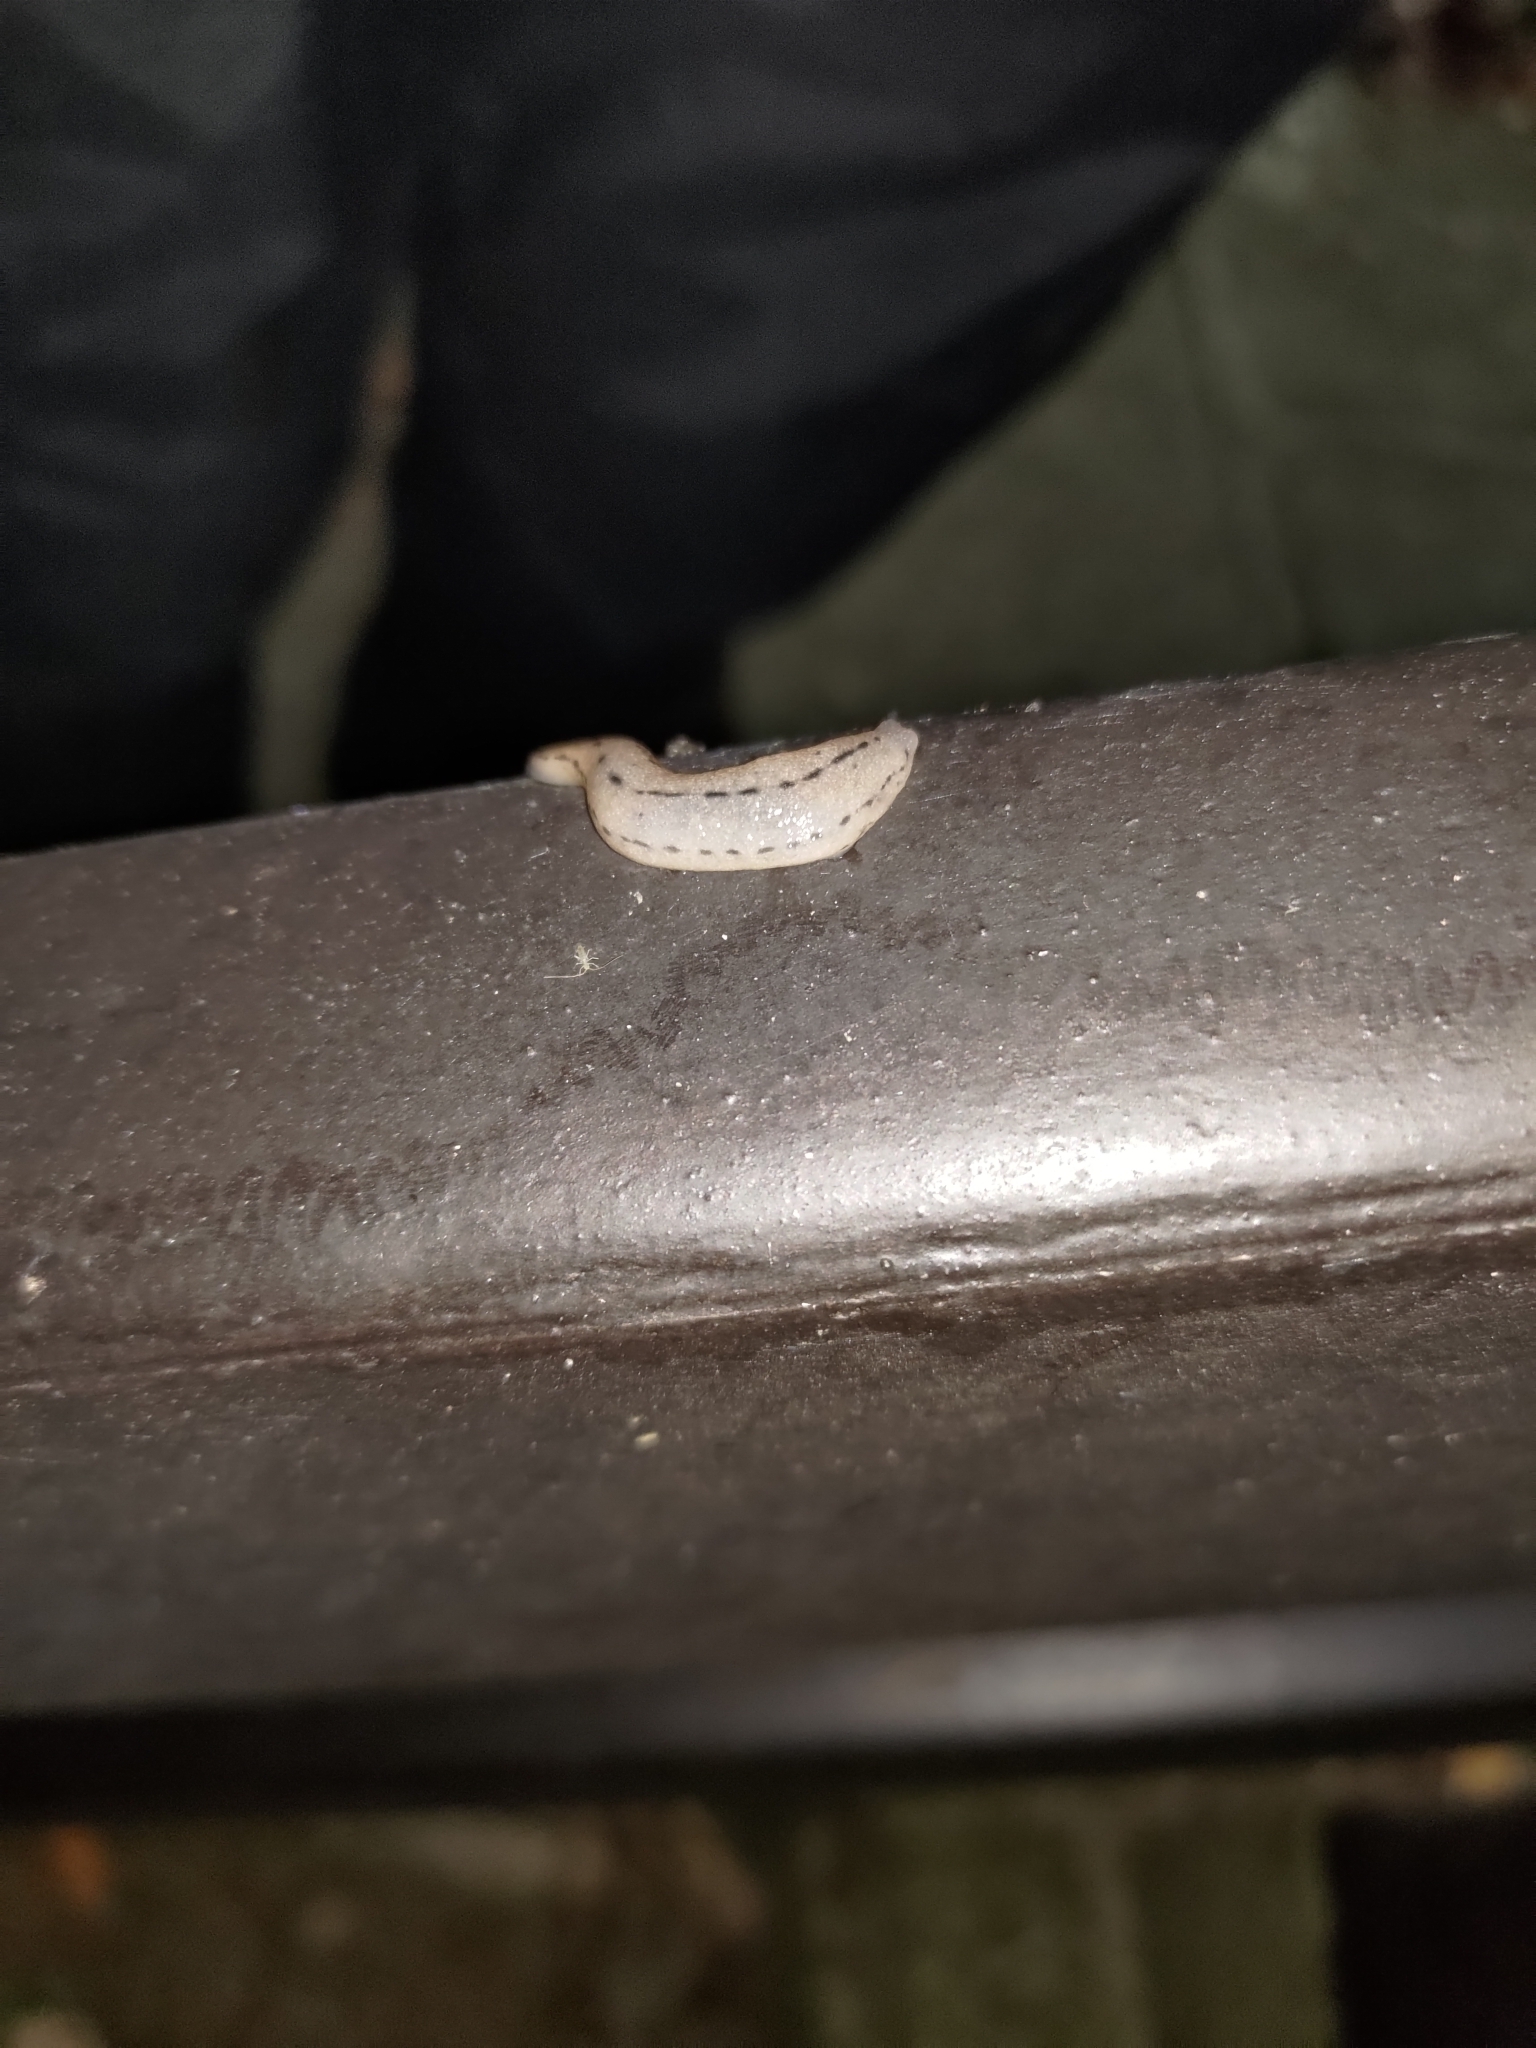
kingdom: Animalia
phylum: Mollusca
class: Gastropoda
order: Stylommatophora
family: Philomycidae
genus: Meghimatium
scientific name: Meghimatium bilineatum
